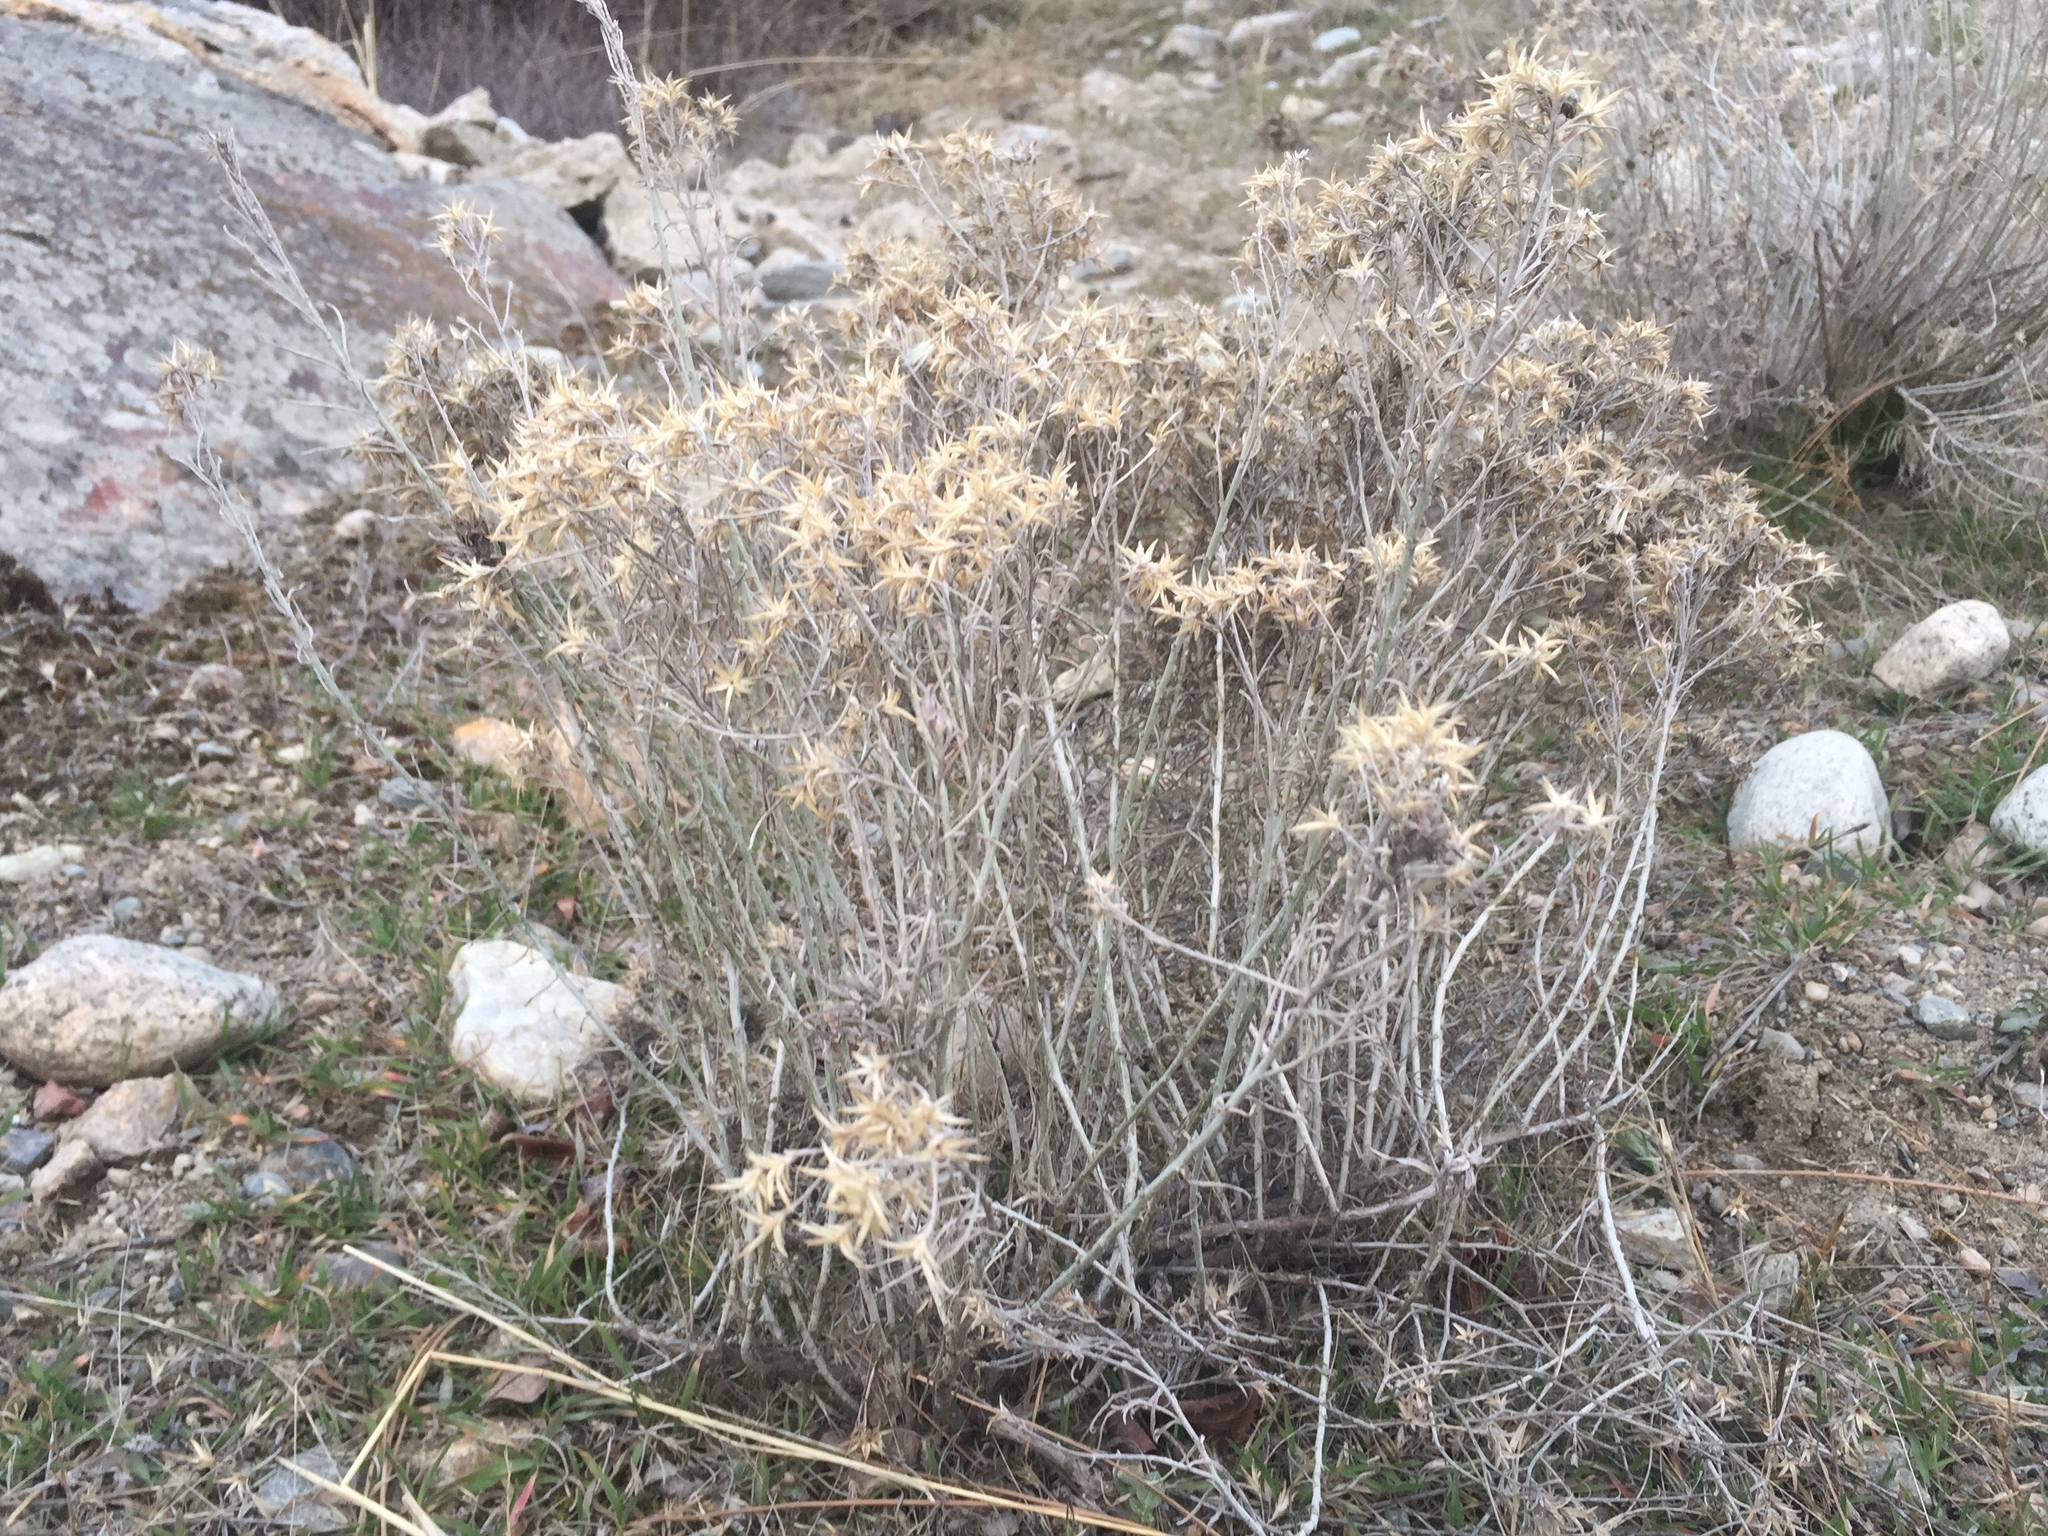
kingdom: Plantae
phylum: Tracheophyta
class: Magnoliopsida
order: Asterales
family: Asteraceae
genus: Ericameria
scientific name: Ericameria nauseosa
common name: Rubber rabbitbrush
